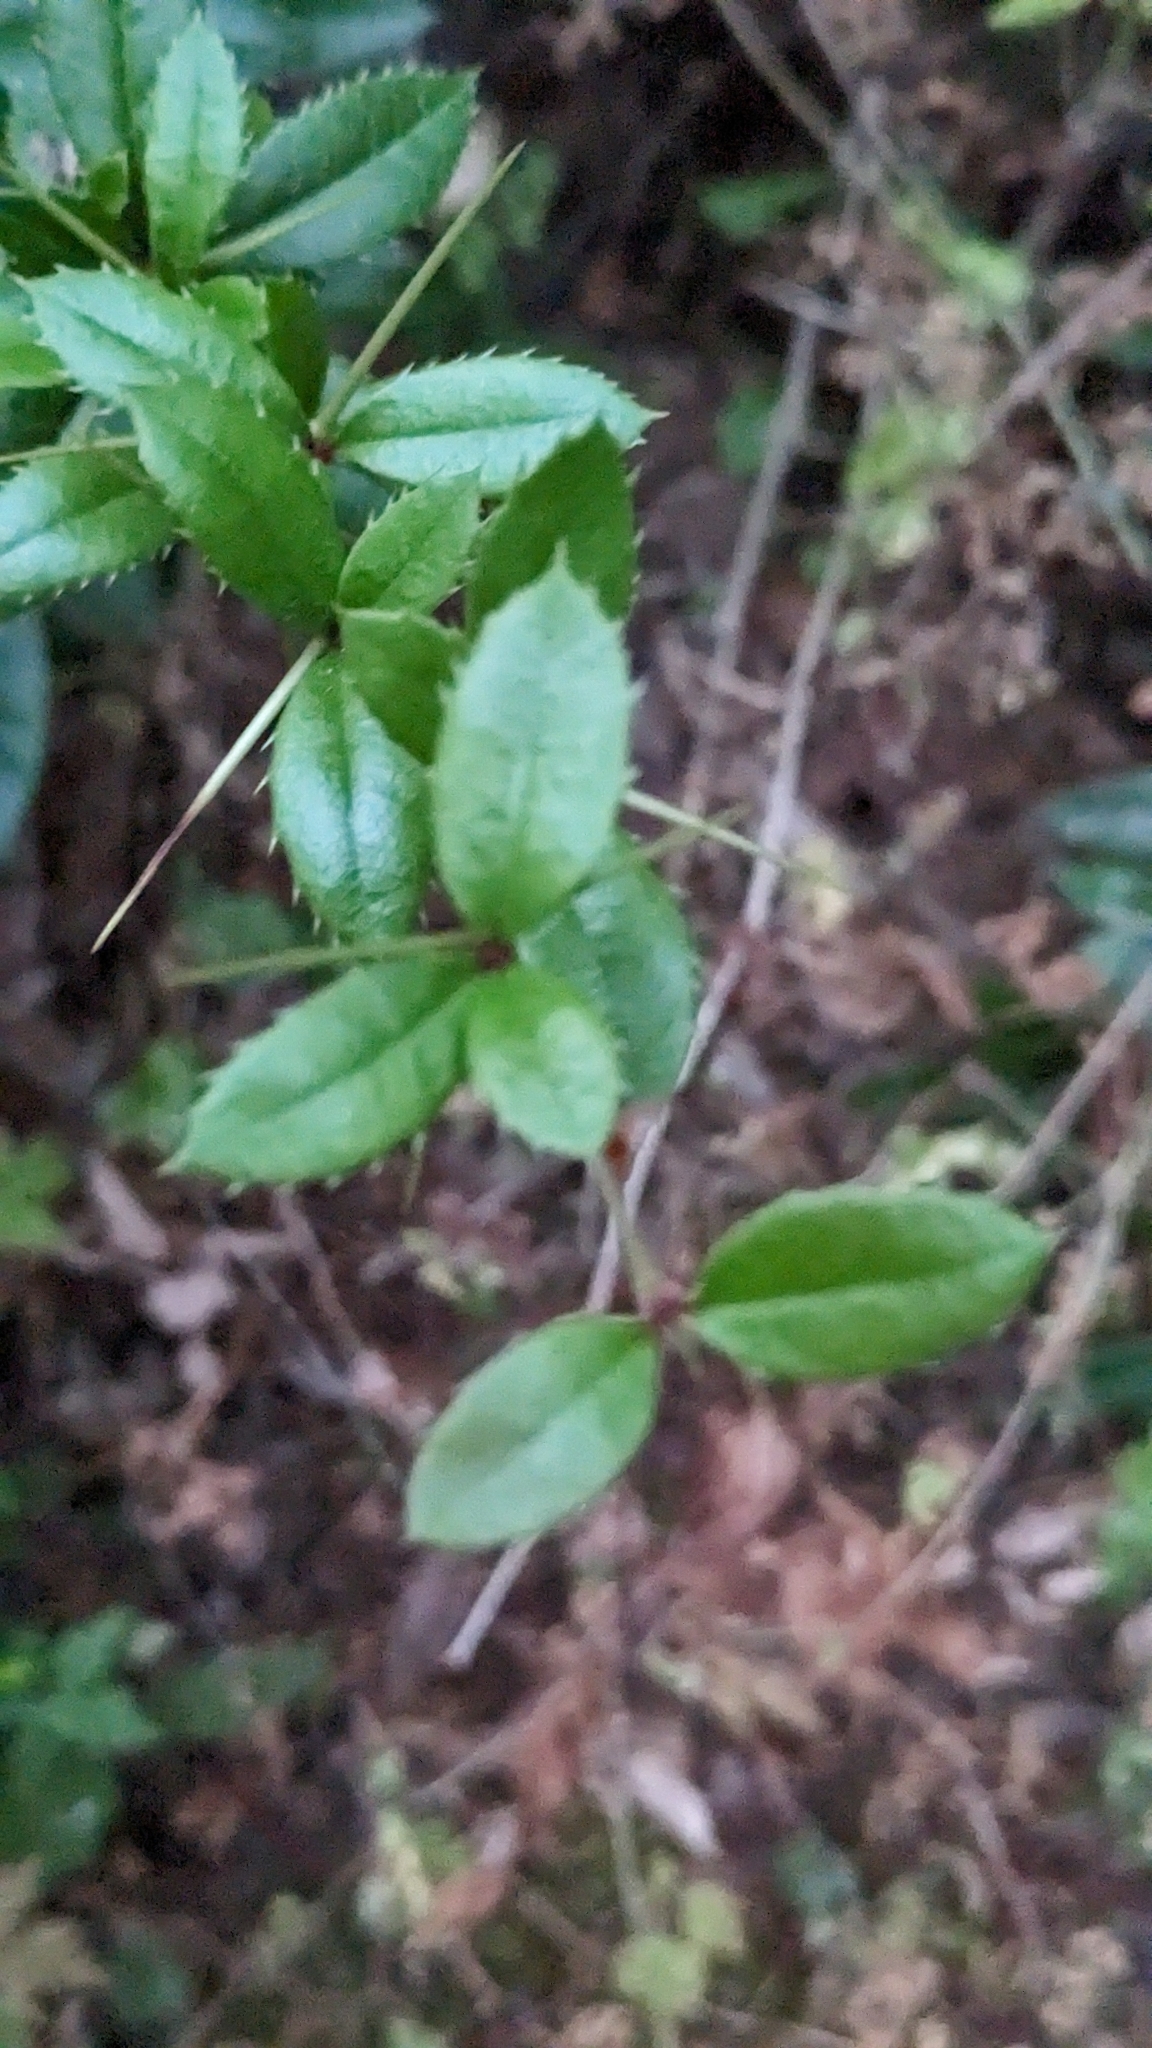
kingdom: Plantae
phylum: Tracheophyta
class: Magnoliopsida
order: Ranunculales
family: Berberidaceae
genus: Berberis
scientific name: Berberis julianae
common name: Wintergreen barberry
